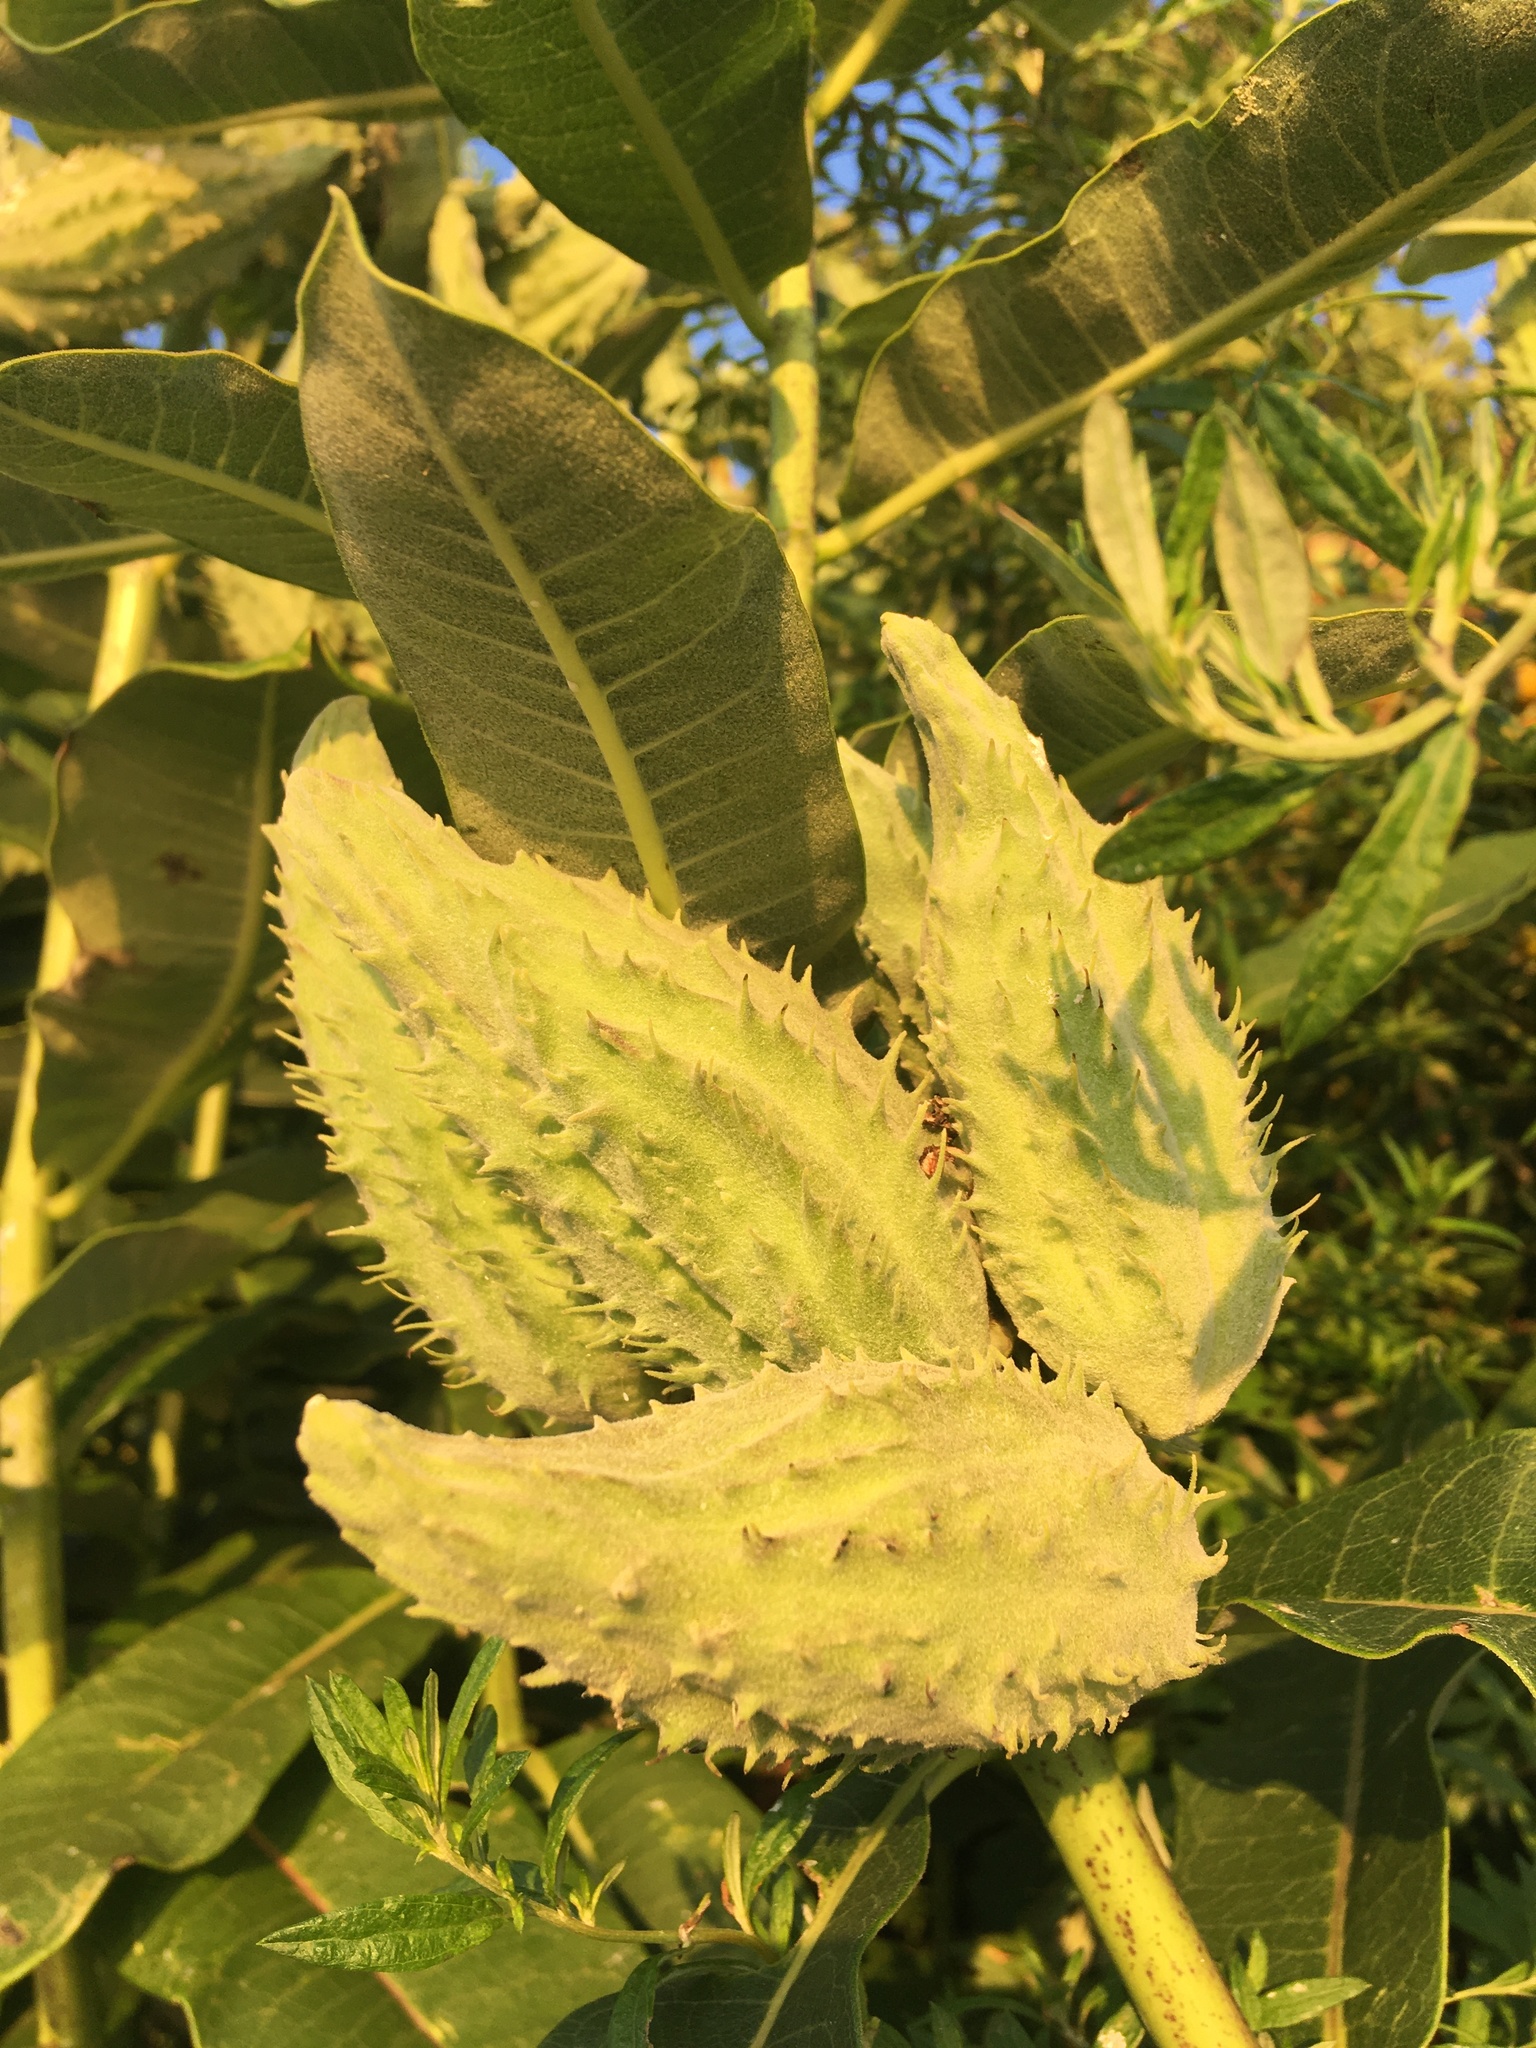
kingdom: Plantae
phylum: Tracheophyta
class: Magnoliopsida
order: Gentianales
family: Apocynaceae
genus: Asclepias
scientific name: Asclepias syriaca
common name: Common milkweed
